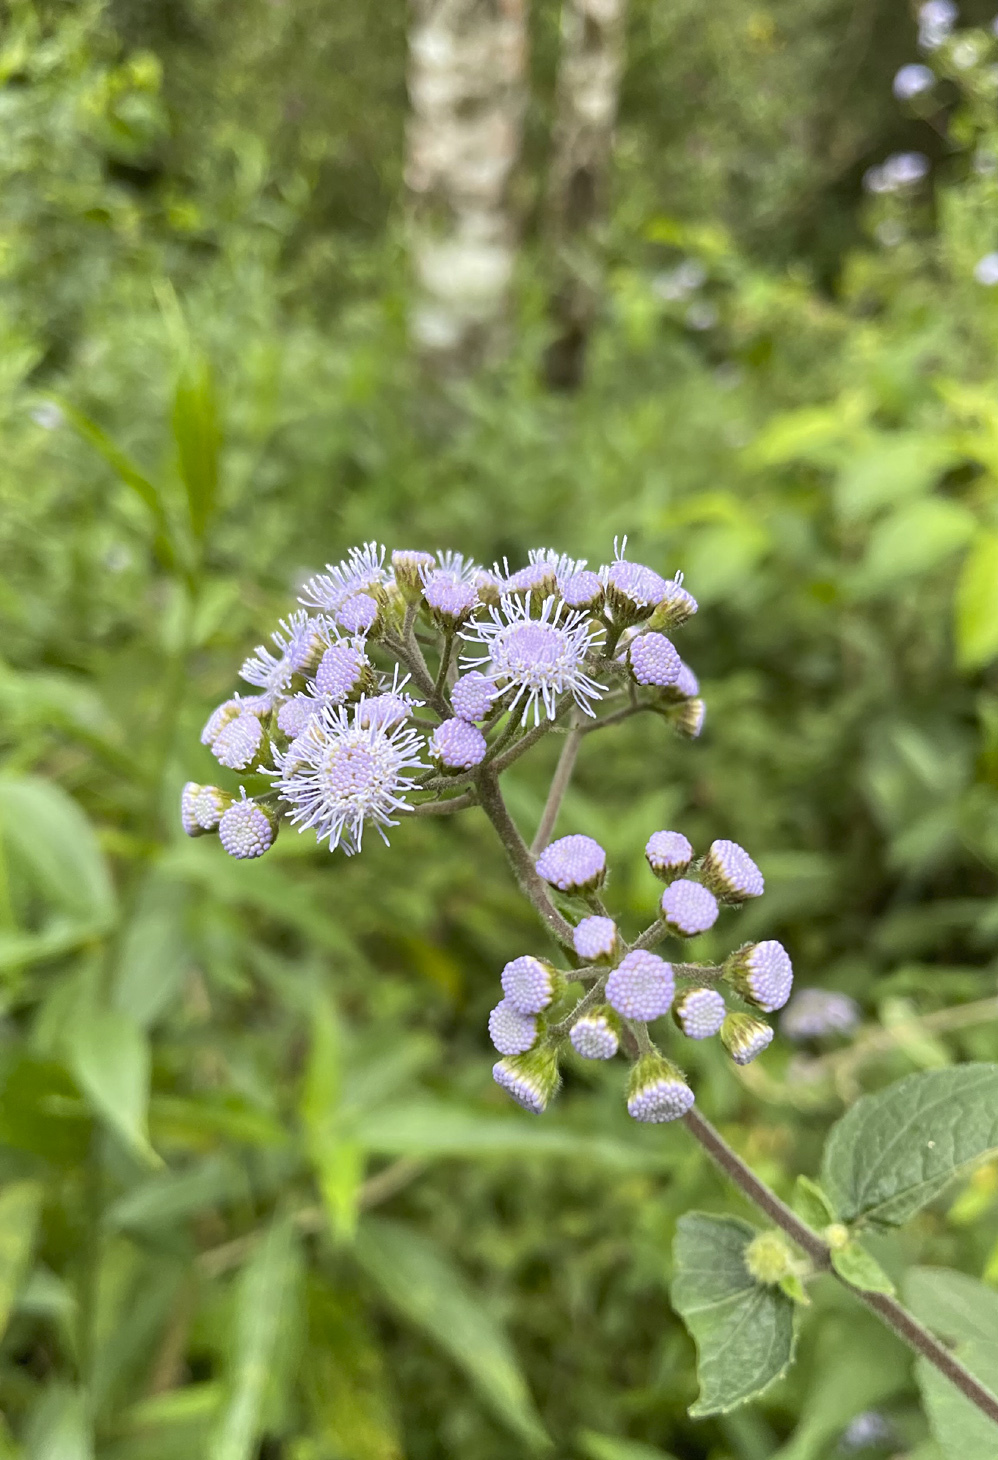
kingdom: Plantae
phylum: Tracheophyta
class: Magnoliopsida
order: Asterales
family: Asteraceae
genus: Ageratum
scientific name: Ageratum corymbosum
